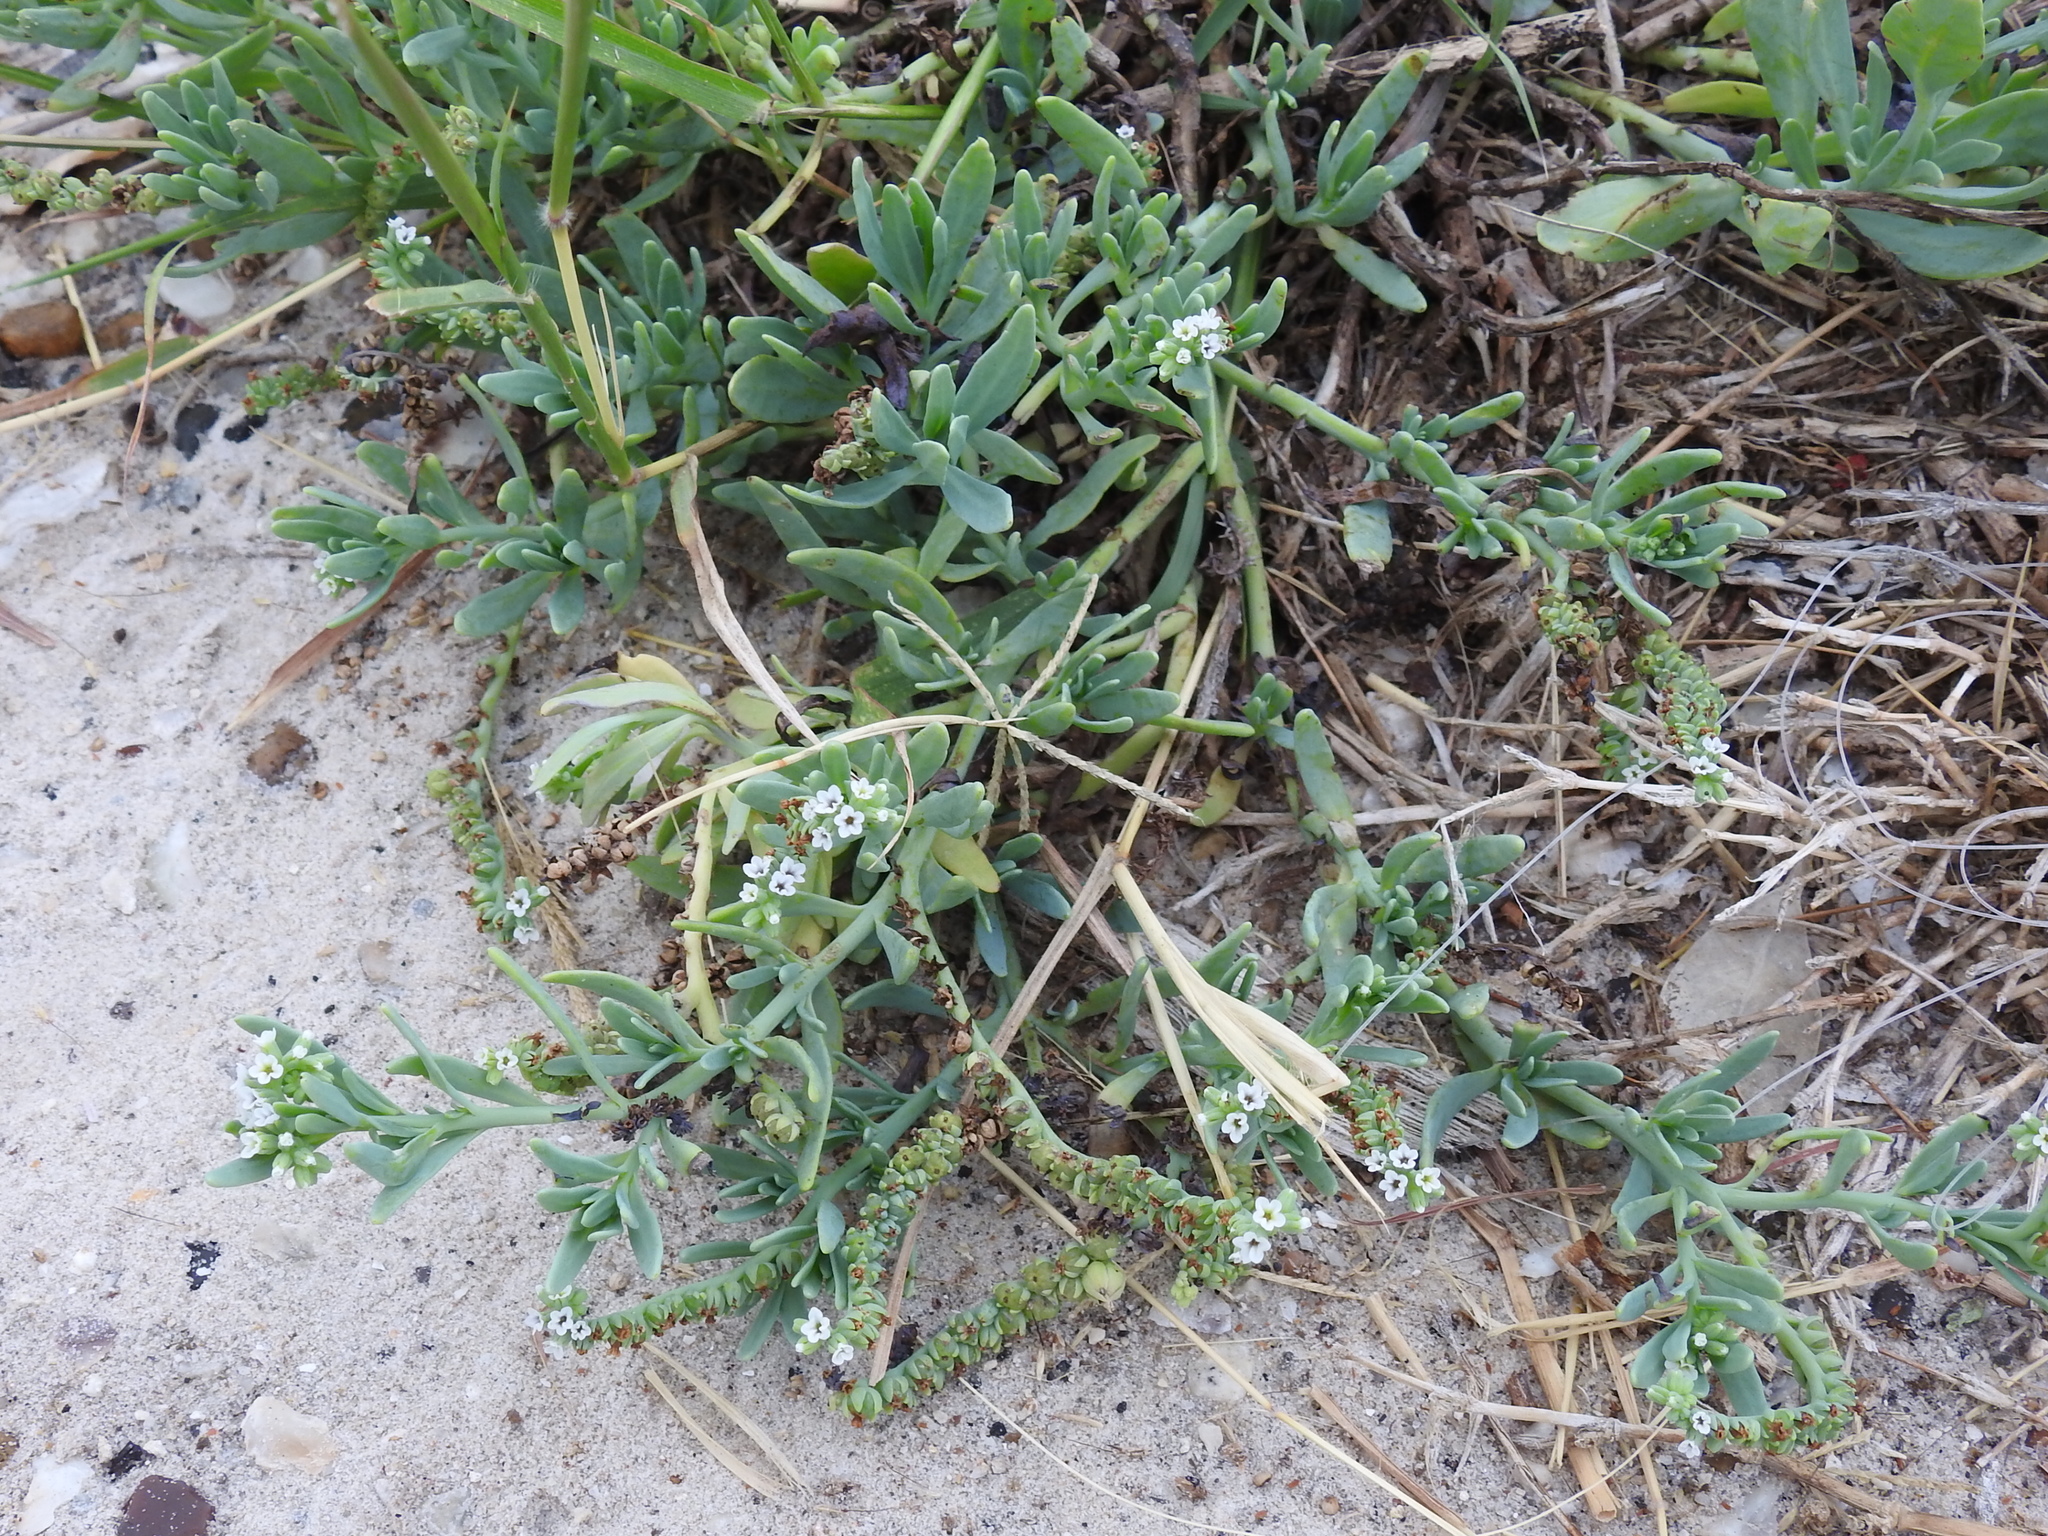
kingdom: Plantae
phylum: Tracheophyta
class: Magnoliopsida
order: Boraginales
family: Heliotropiaceae
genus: Heliotropium
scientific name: Heliotropium curassavicum
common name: Seaside heliotrope
